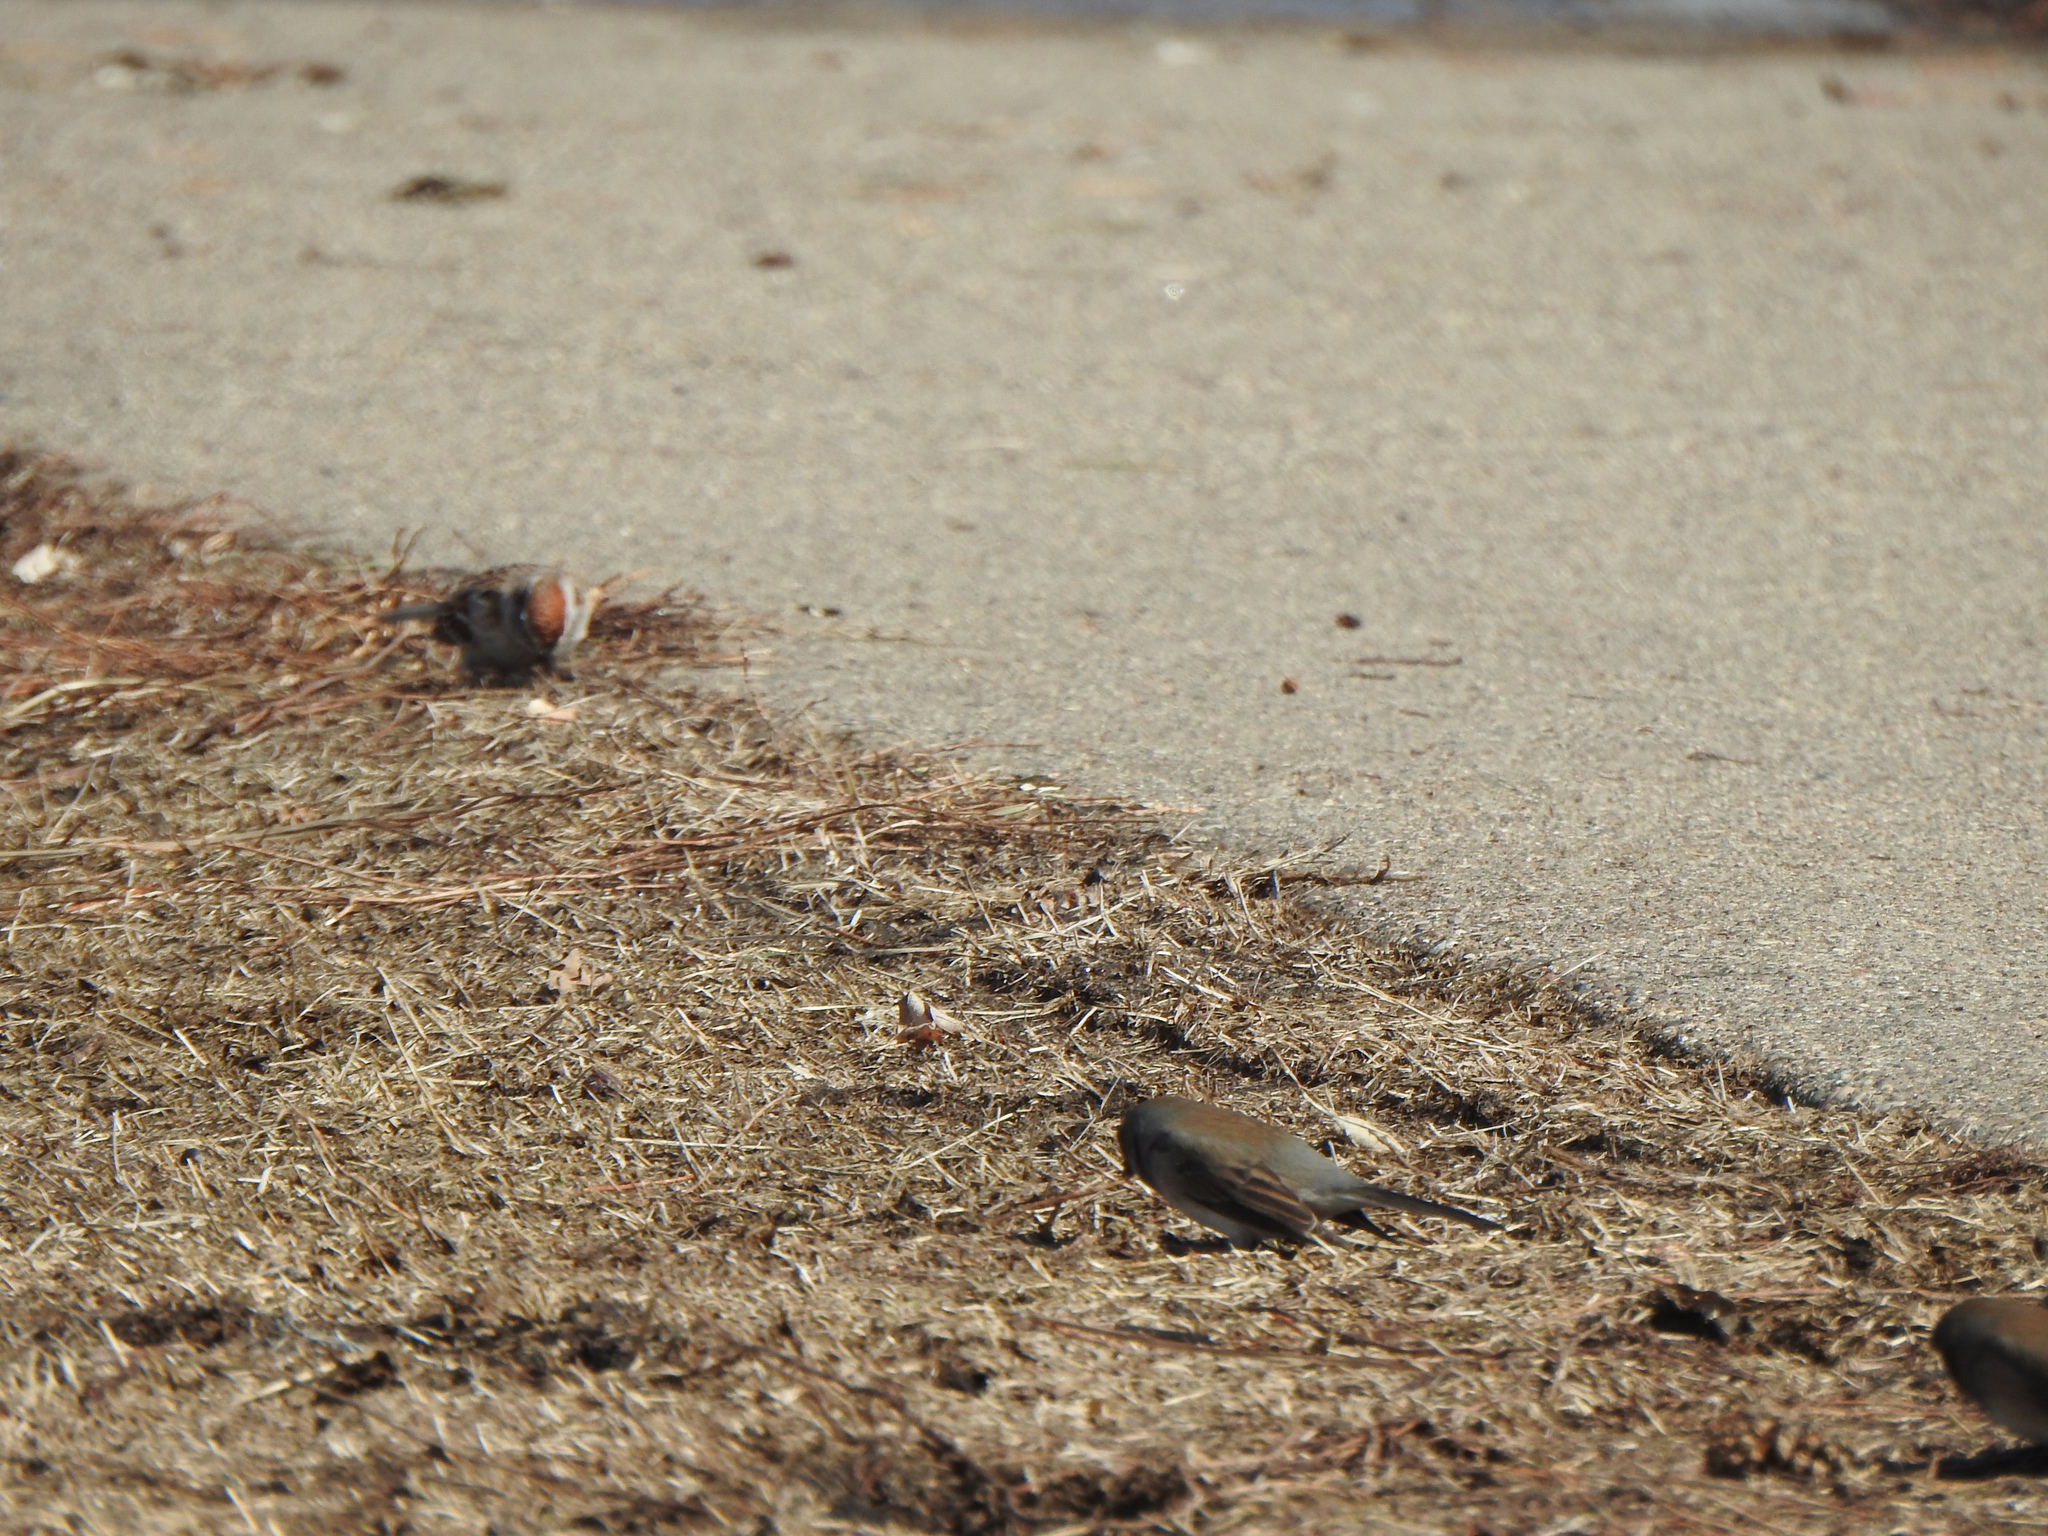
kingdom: Animalia
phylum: Chordata
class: Aves
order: Passeriformes
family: Passerellidae
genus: Spizella
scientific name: Spizella passerina
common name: Chipping sparrow
